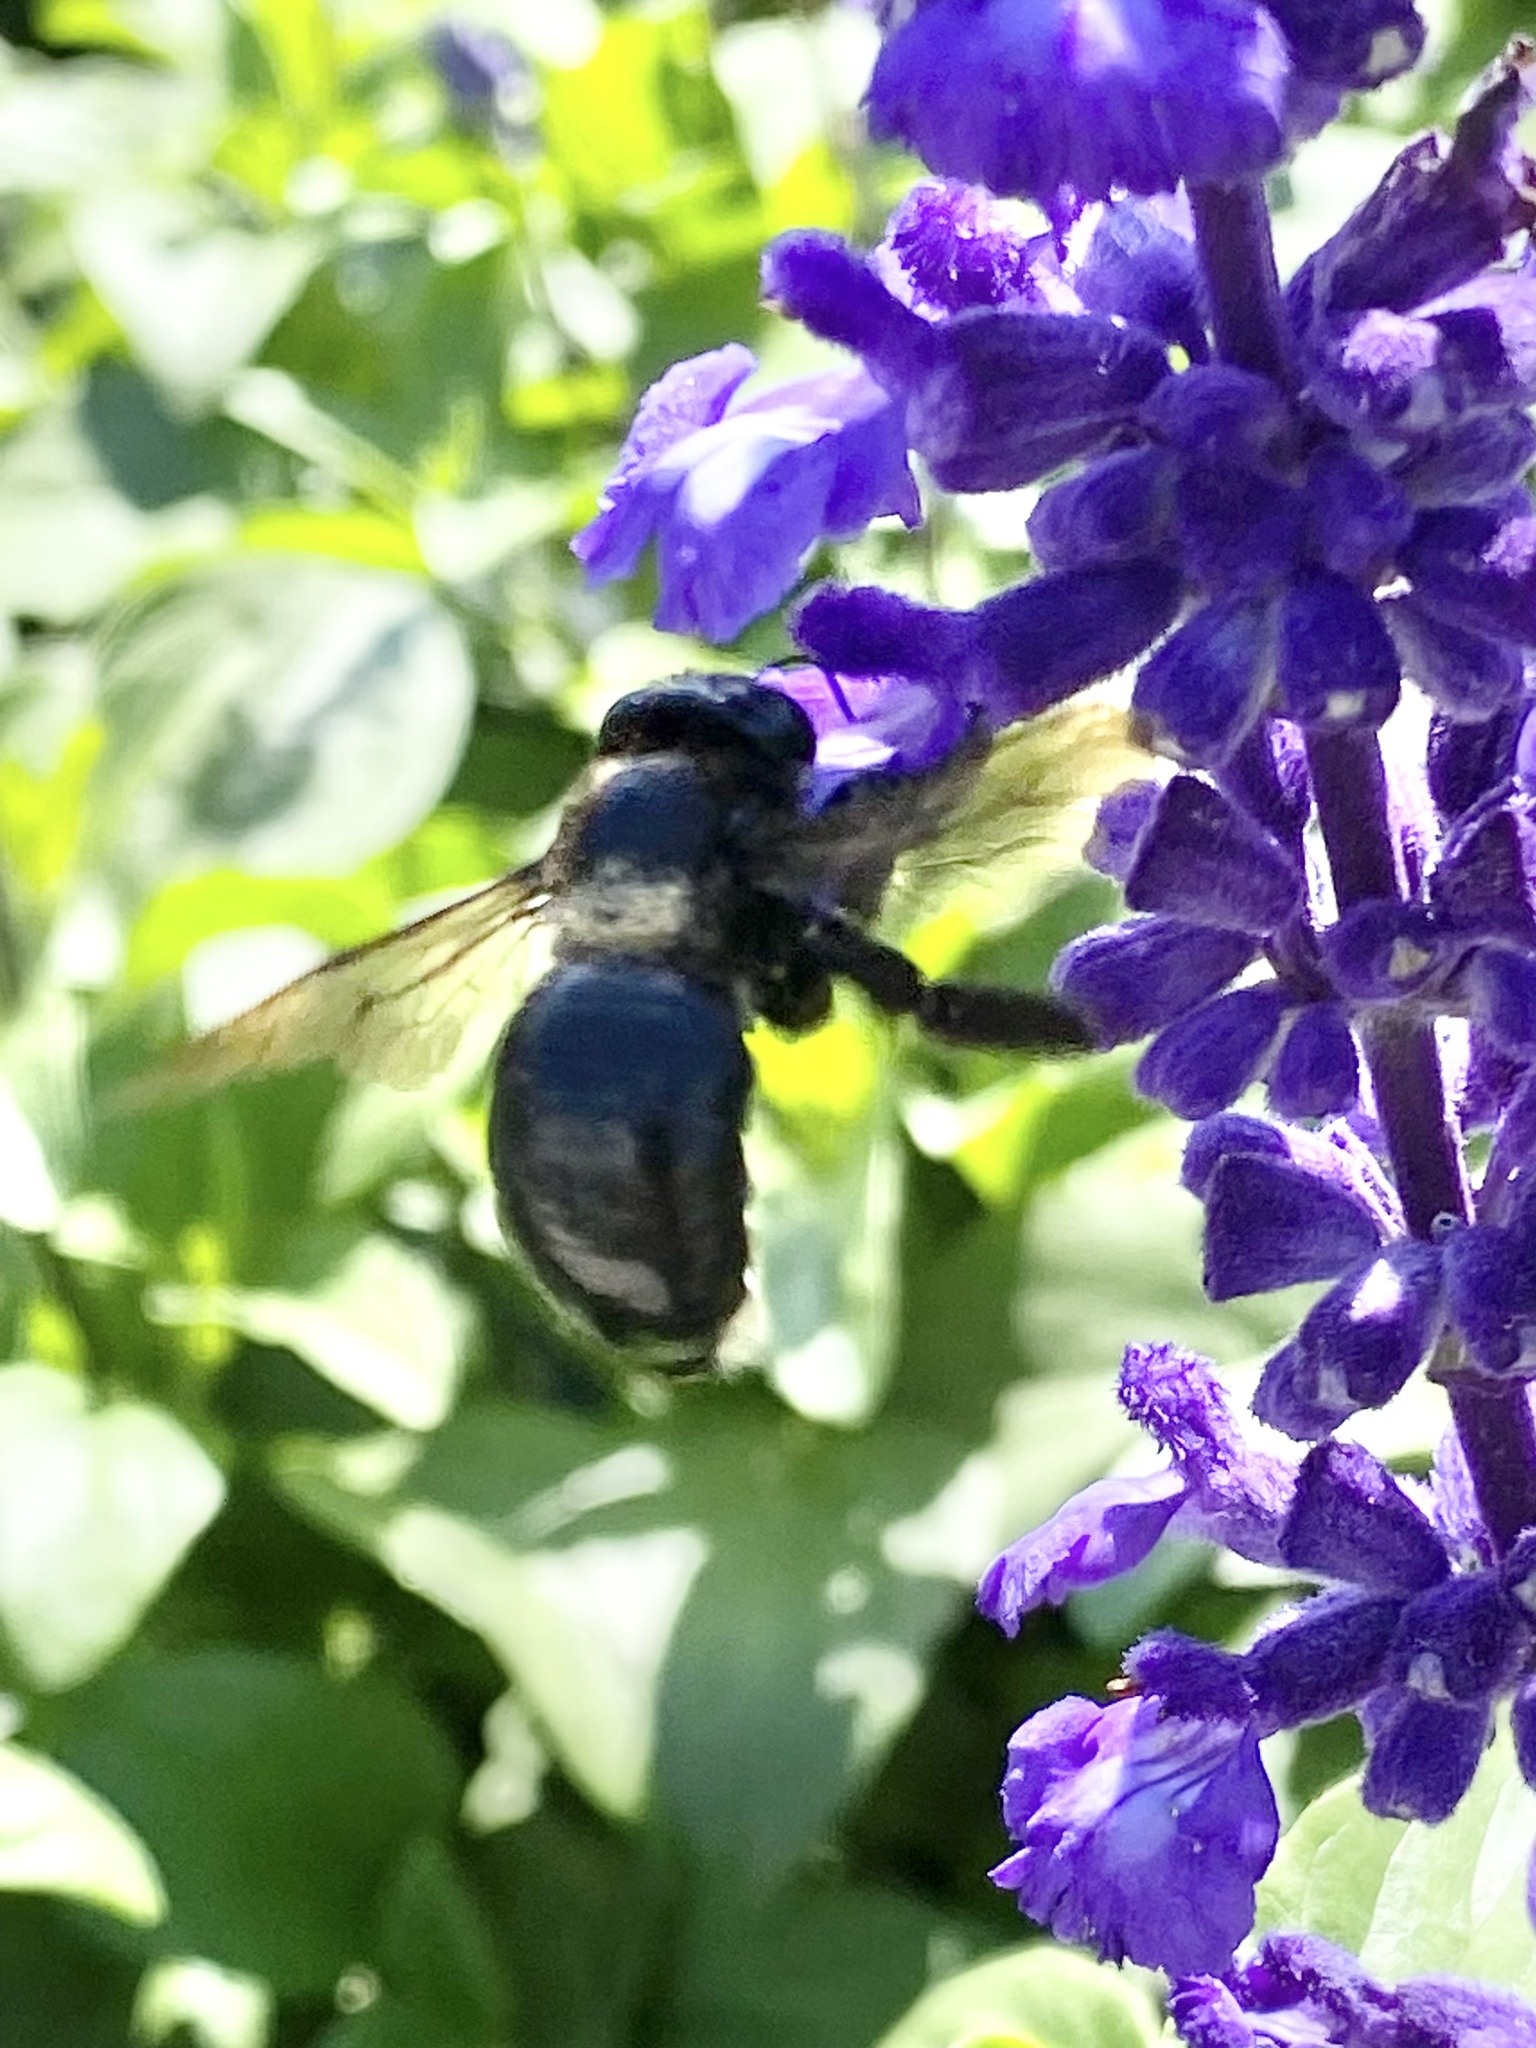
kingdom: Animalia
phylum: Arthropoda
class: Insecta
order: Hymenoptera
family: Apidae
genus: Xylocopa
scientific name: Xylocopa micans
